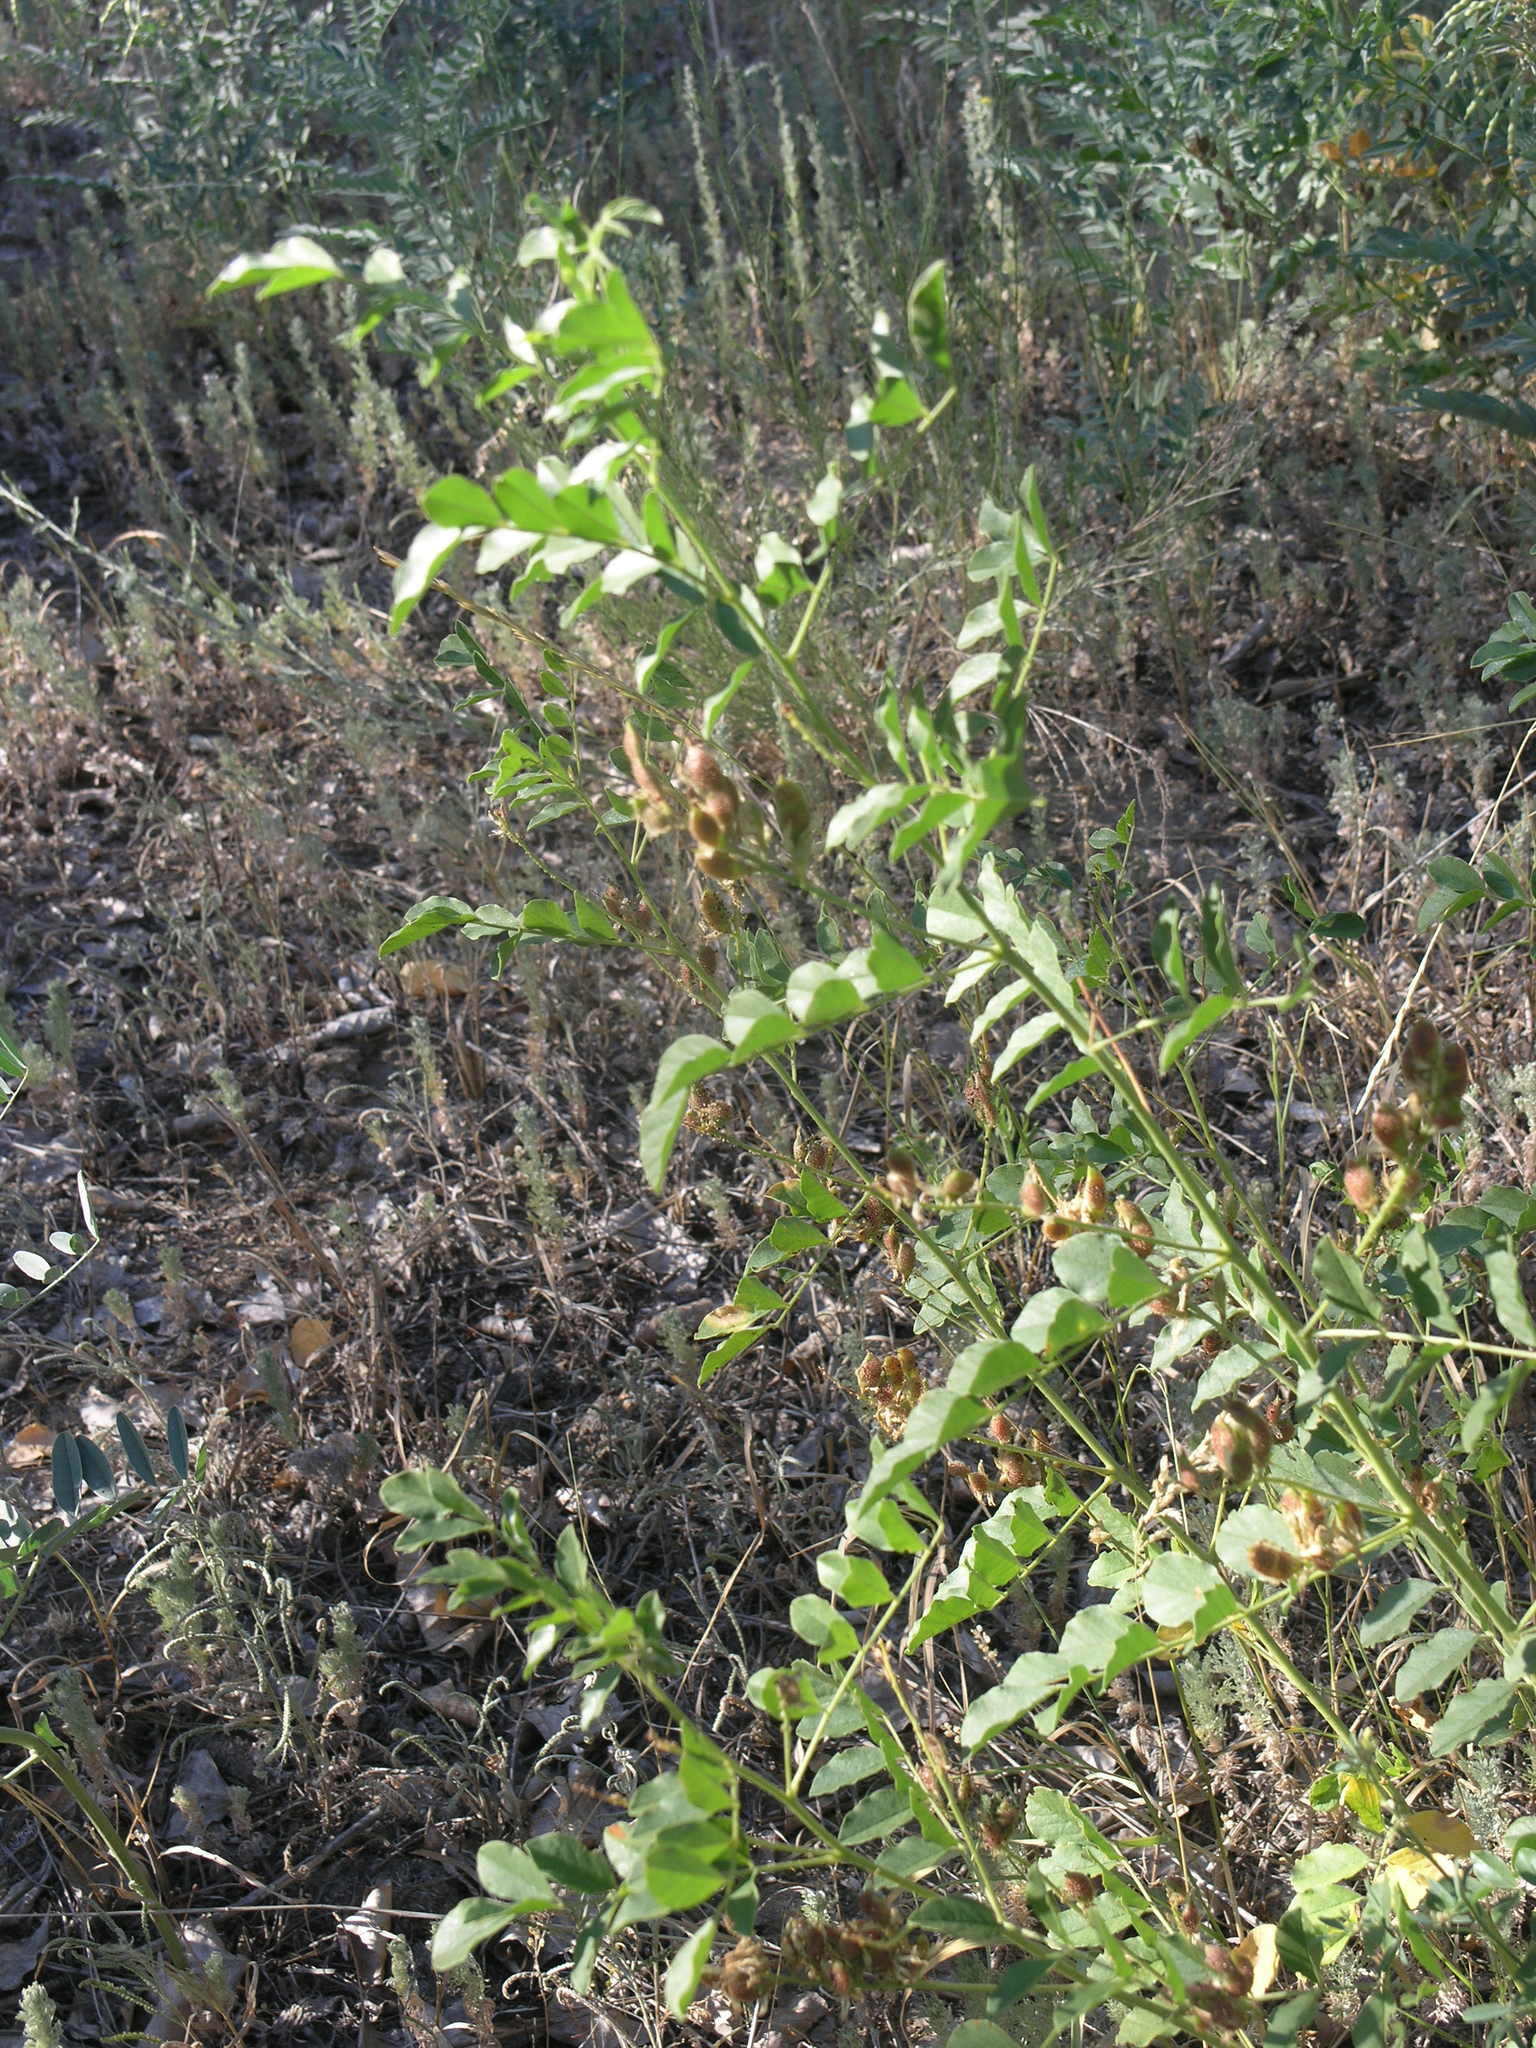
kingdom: Plantae
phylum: Tracheophyta
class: Magnoliopsida
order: Fabales
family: Fabaceae
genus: Glycyrrhiza
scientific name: Glycyrrhiza uralensis
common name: Chinese licorice
